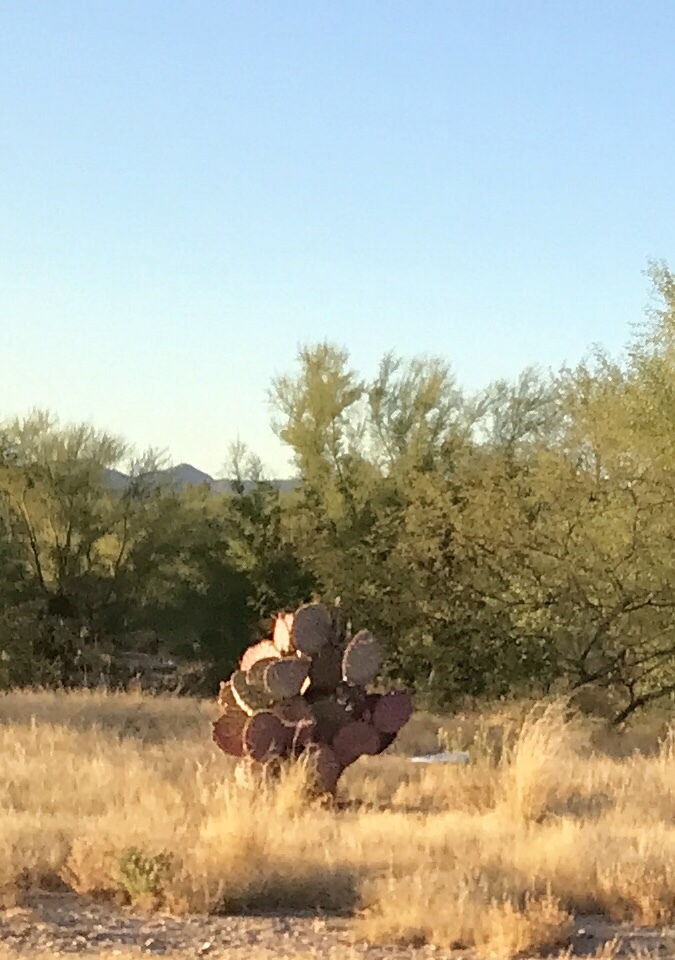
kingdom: Plantae
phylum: Tracheophyta
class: Magnoliopsida
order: Caryophyllales
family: Cactaceae
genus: Opuntia
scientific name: Opuntia gosseliniana
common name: Violet prickly-pear
